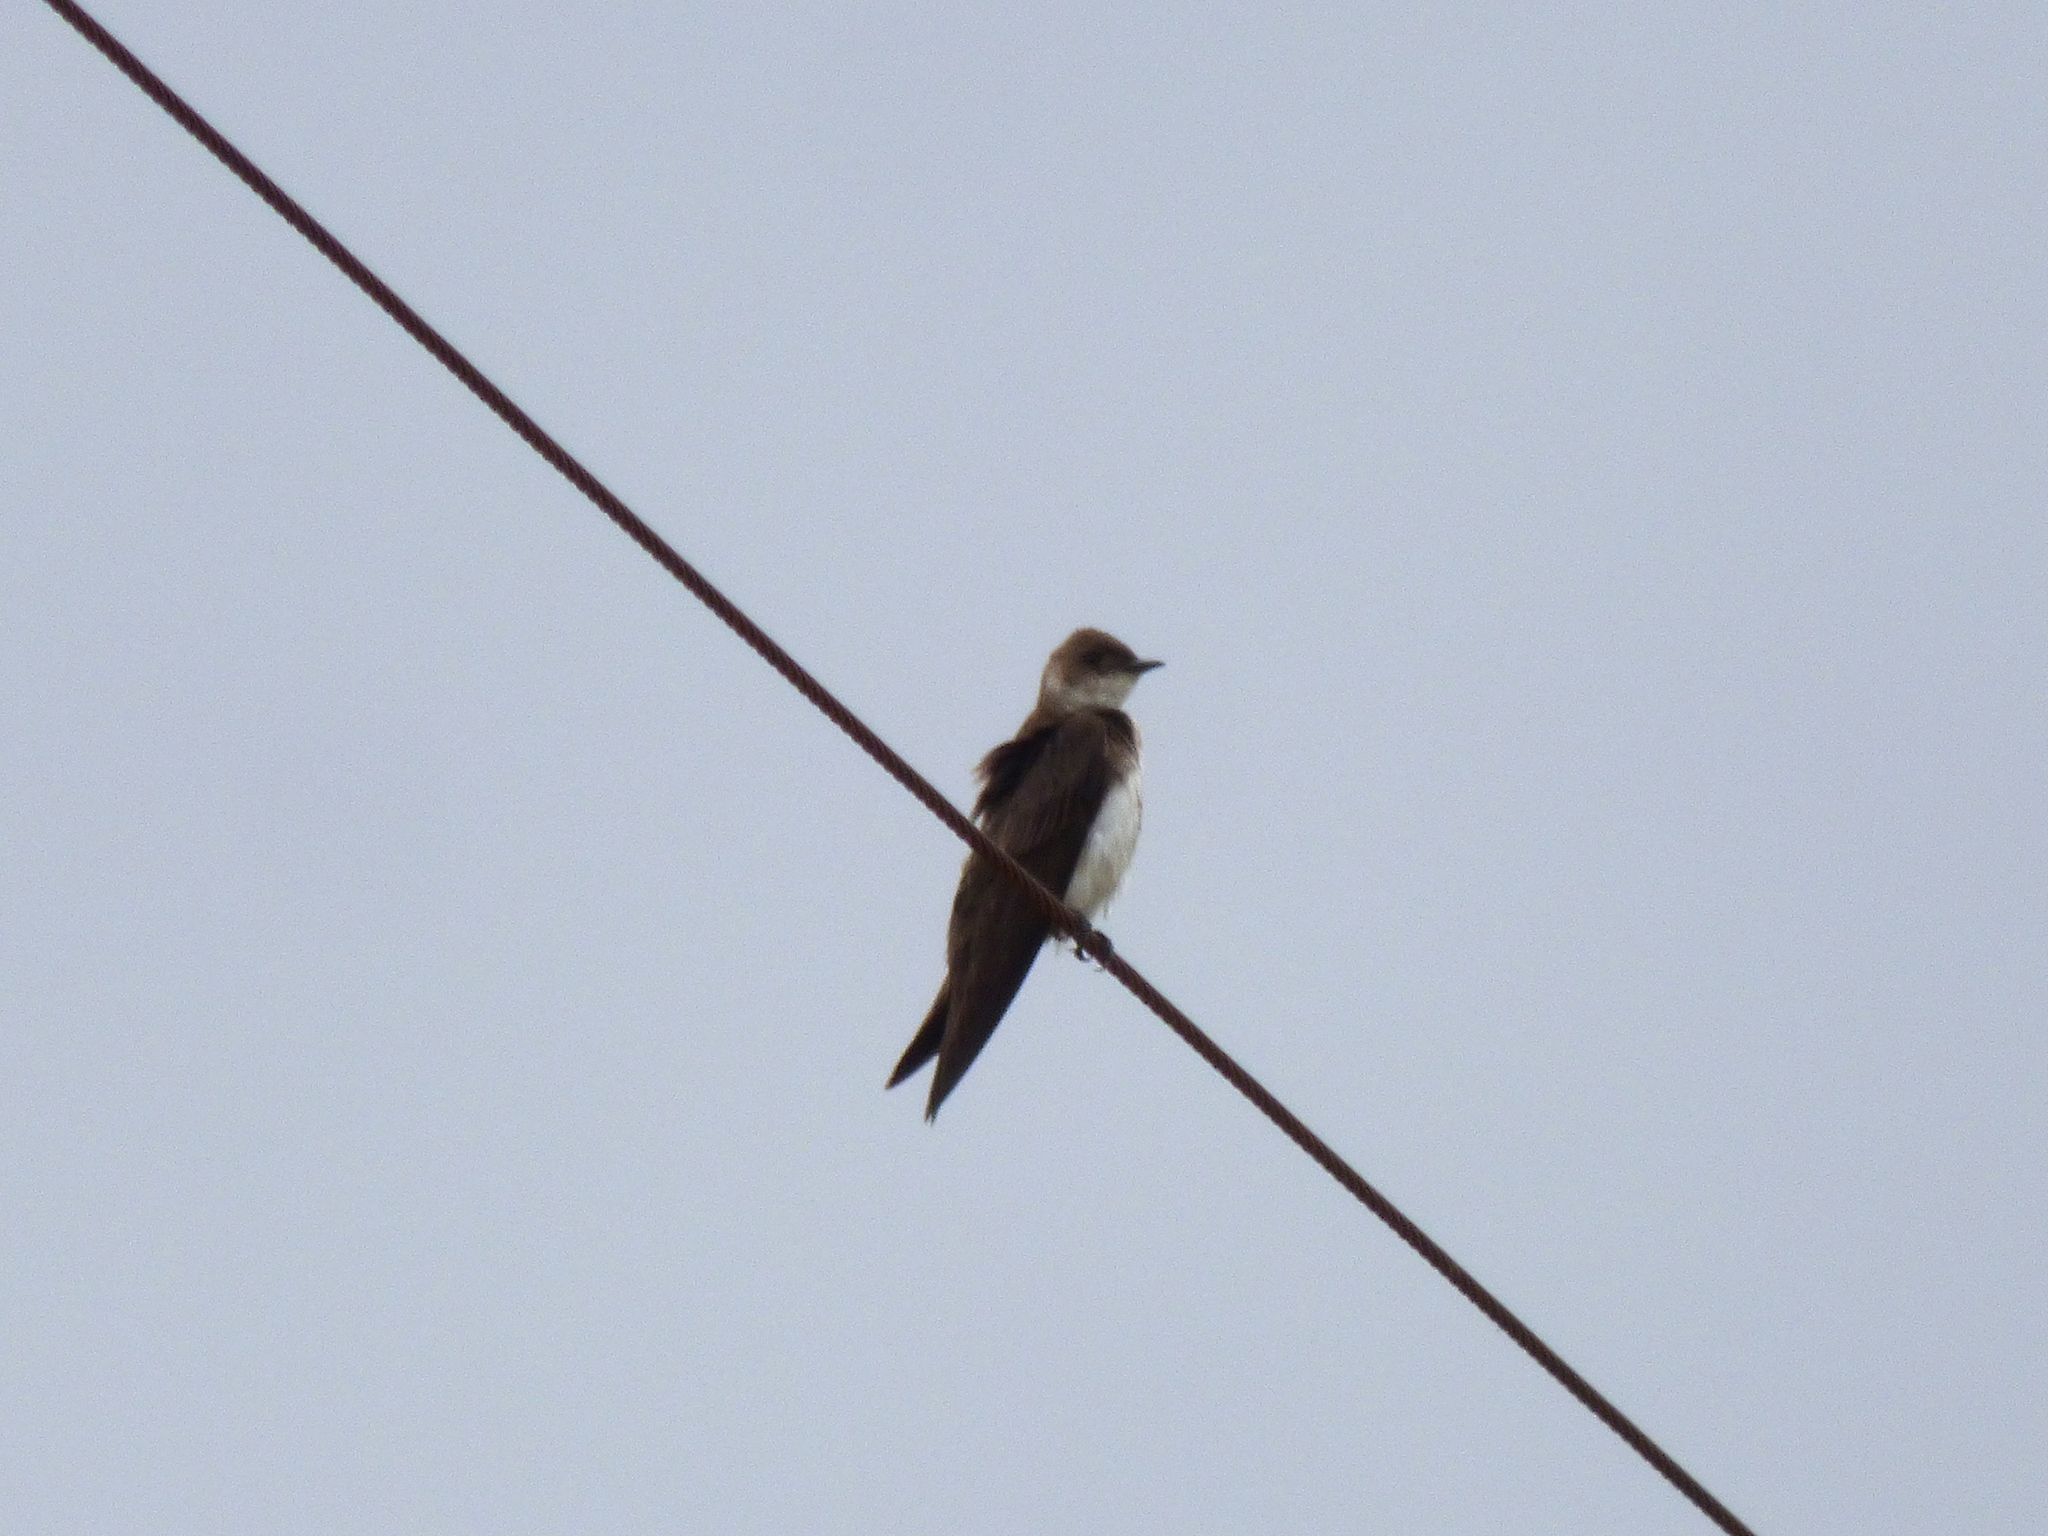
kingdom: Animalia
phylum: Chordata
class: Aves
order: Passeriformes
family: Hirundinidae
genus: Progne
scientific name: Progne tapera
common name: Brown-chested martin
